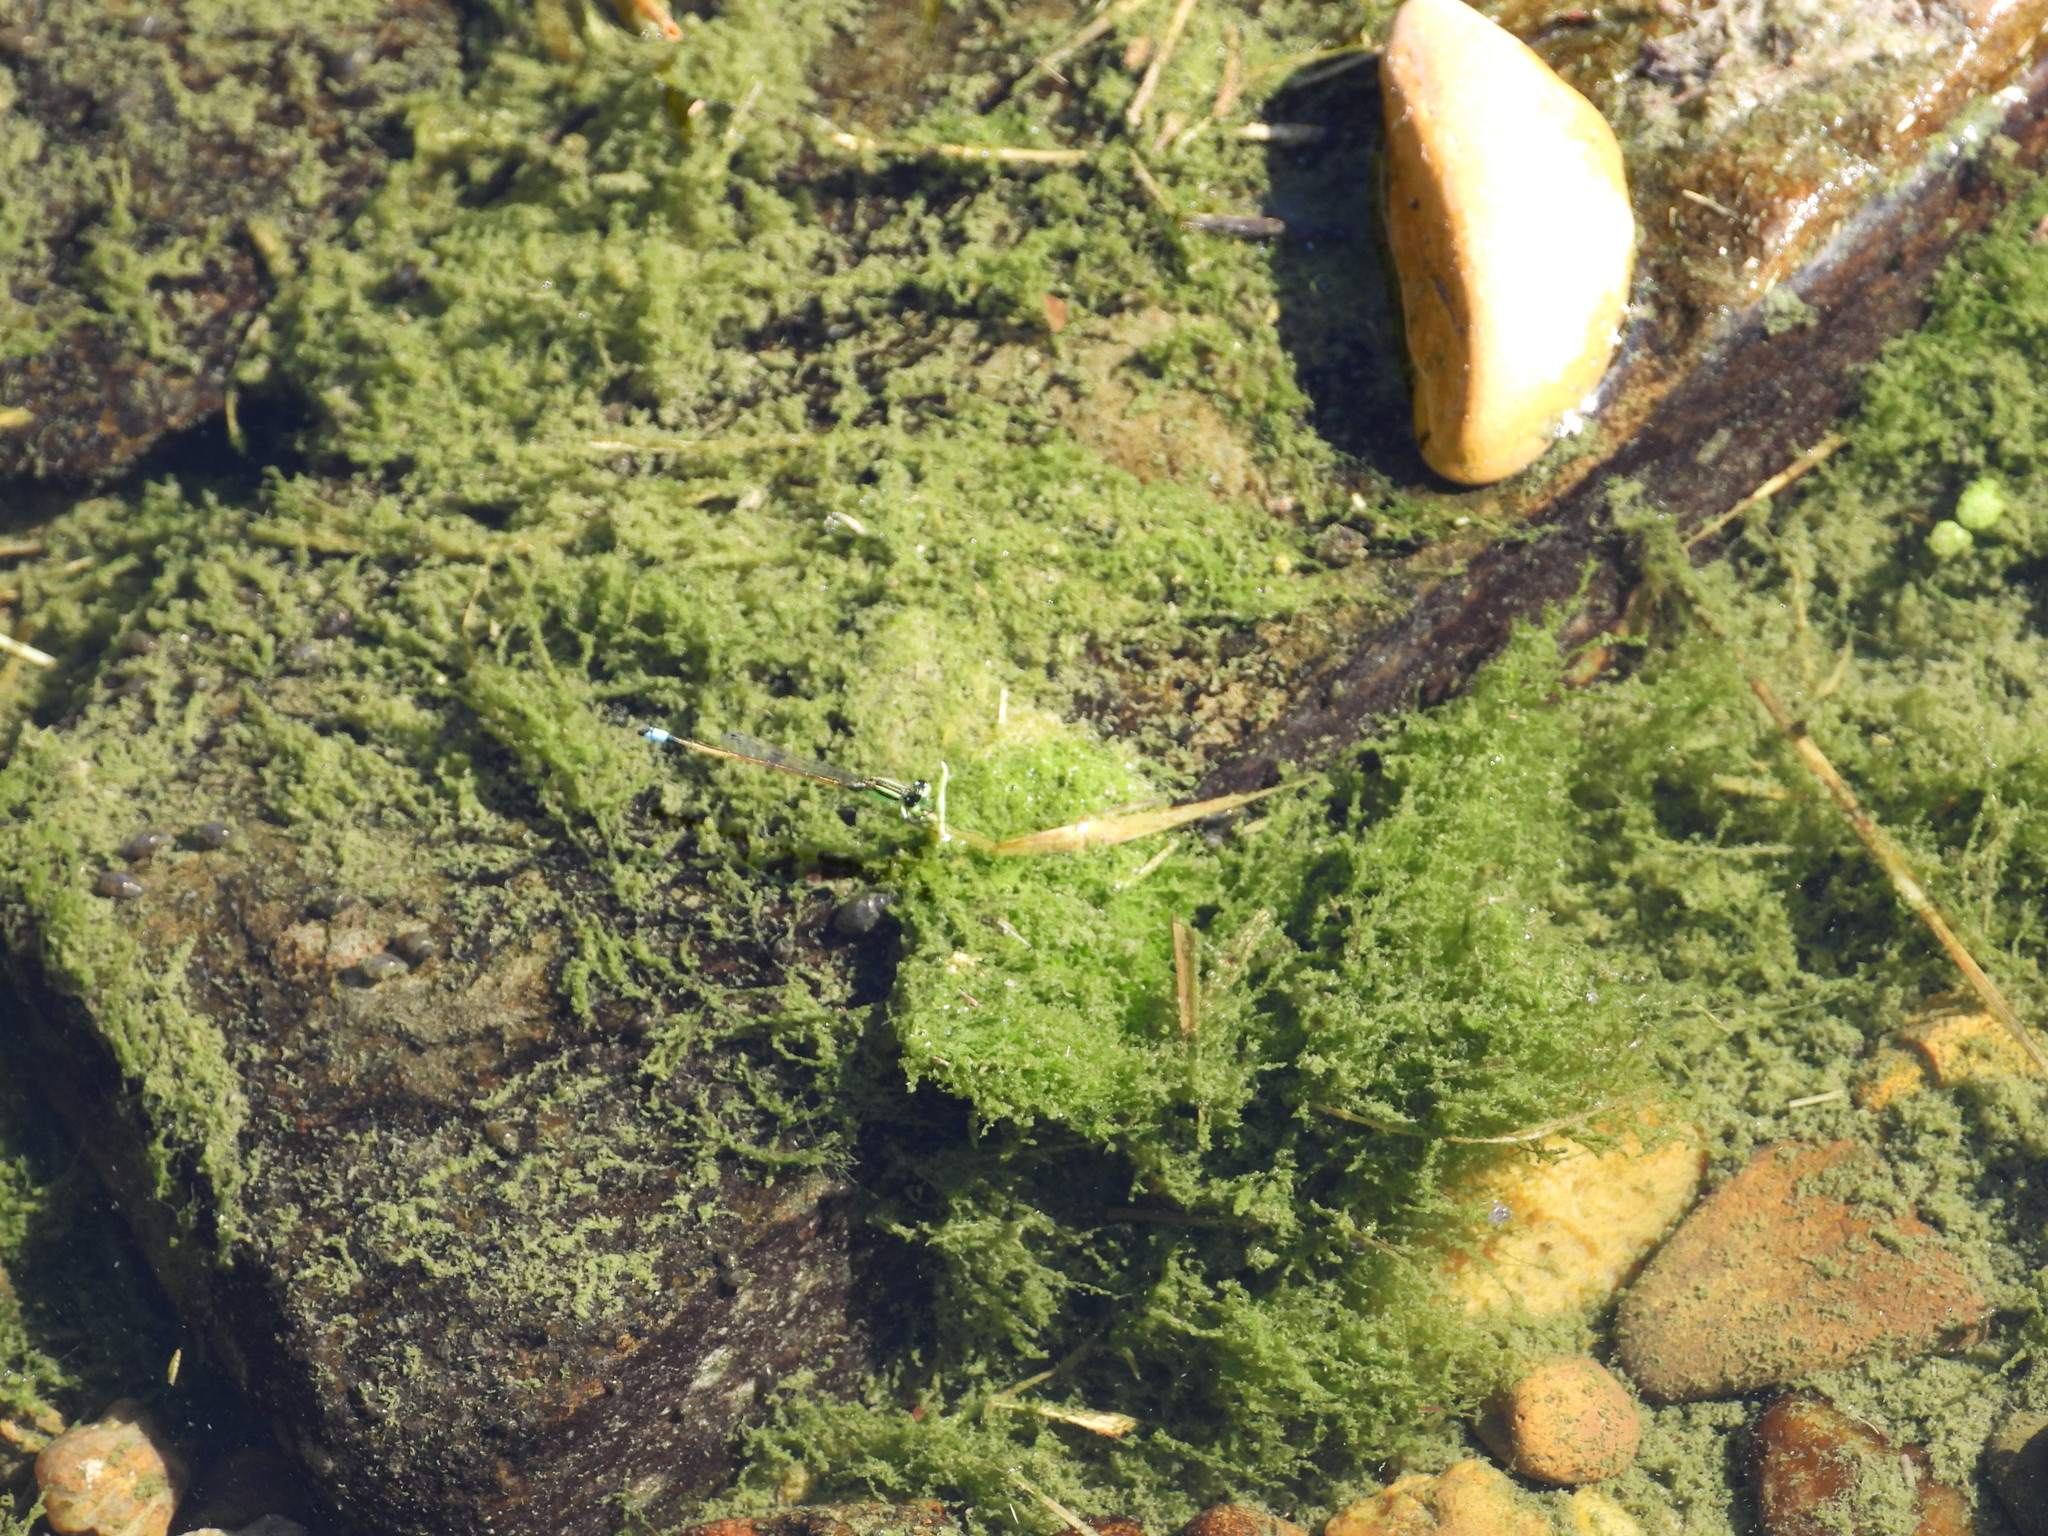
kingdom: Animalia
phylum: Arthropoda
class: Insecta
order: Odonata
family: Coenagrionidae
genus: Ischnura
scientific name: Ischnura ramburii
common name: Rambur's forktail
